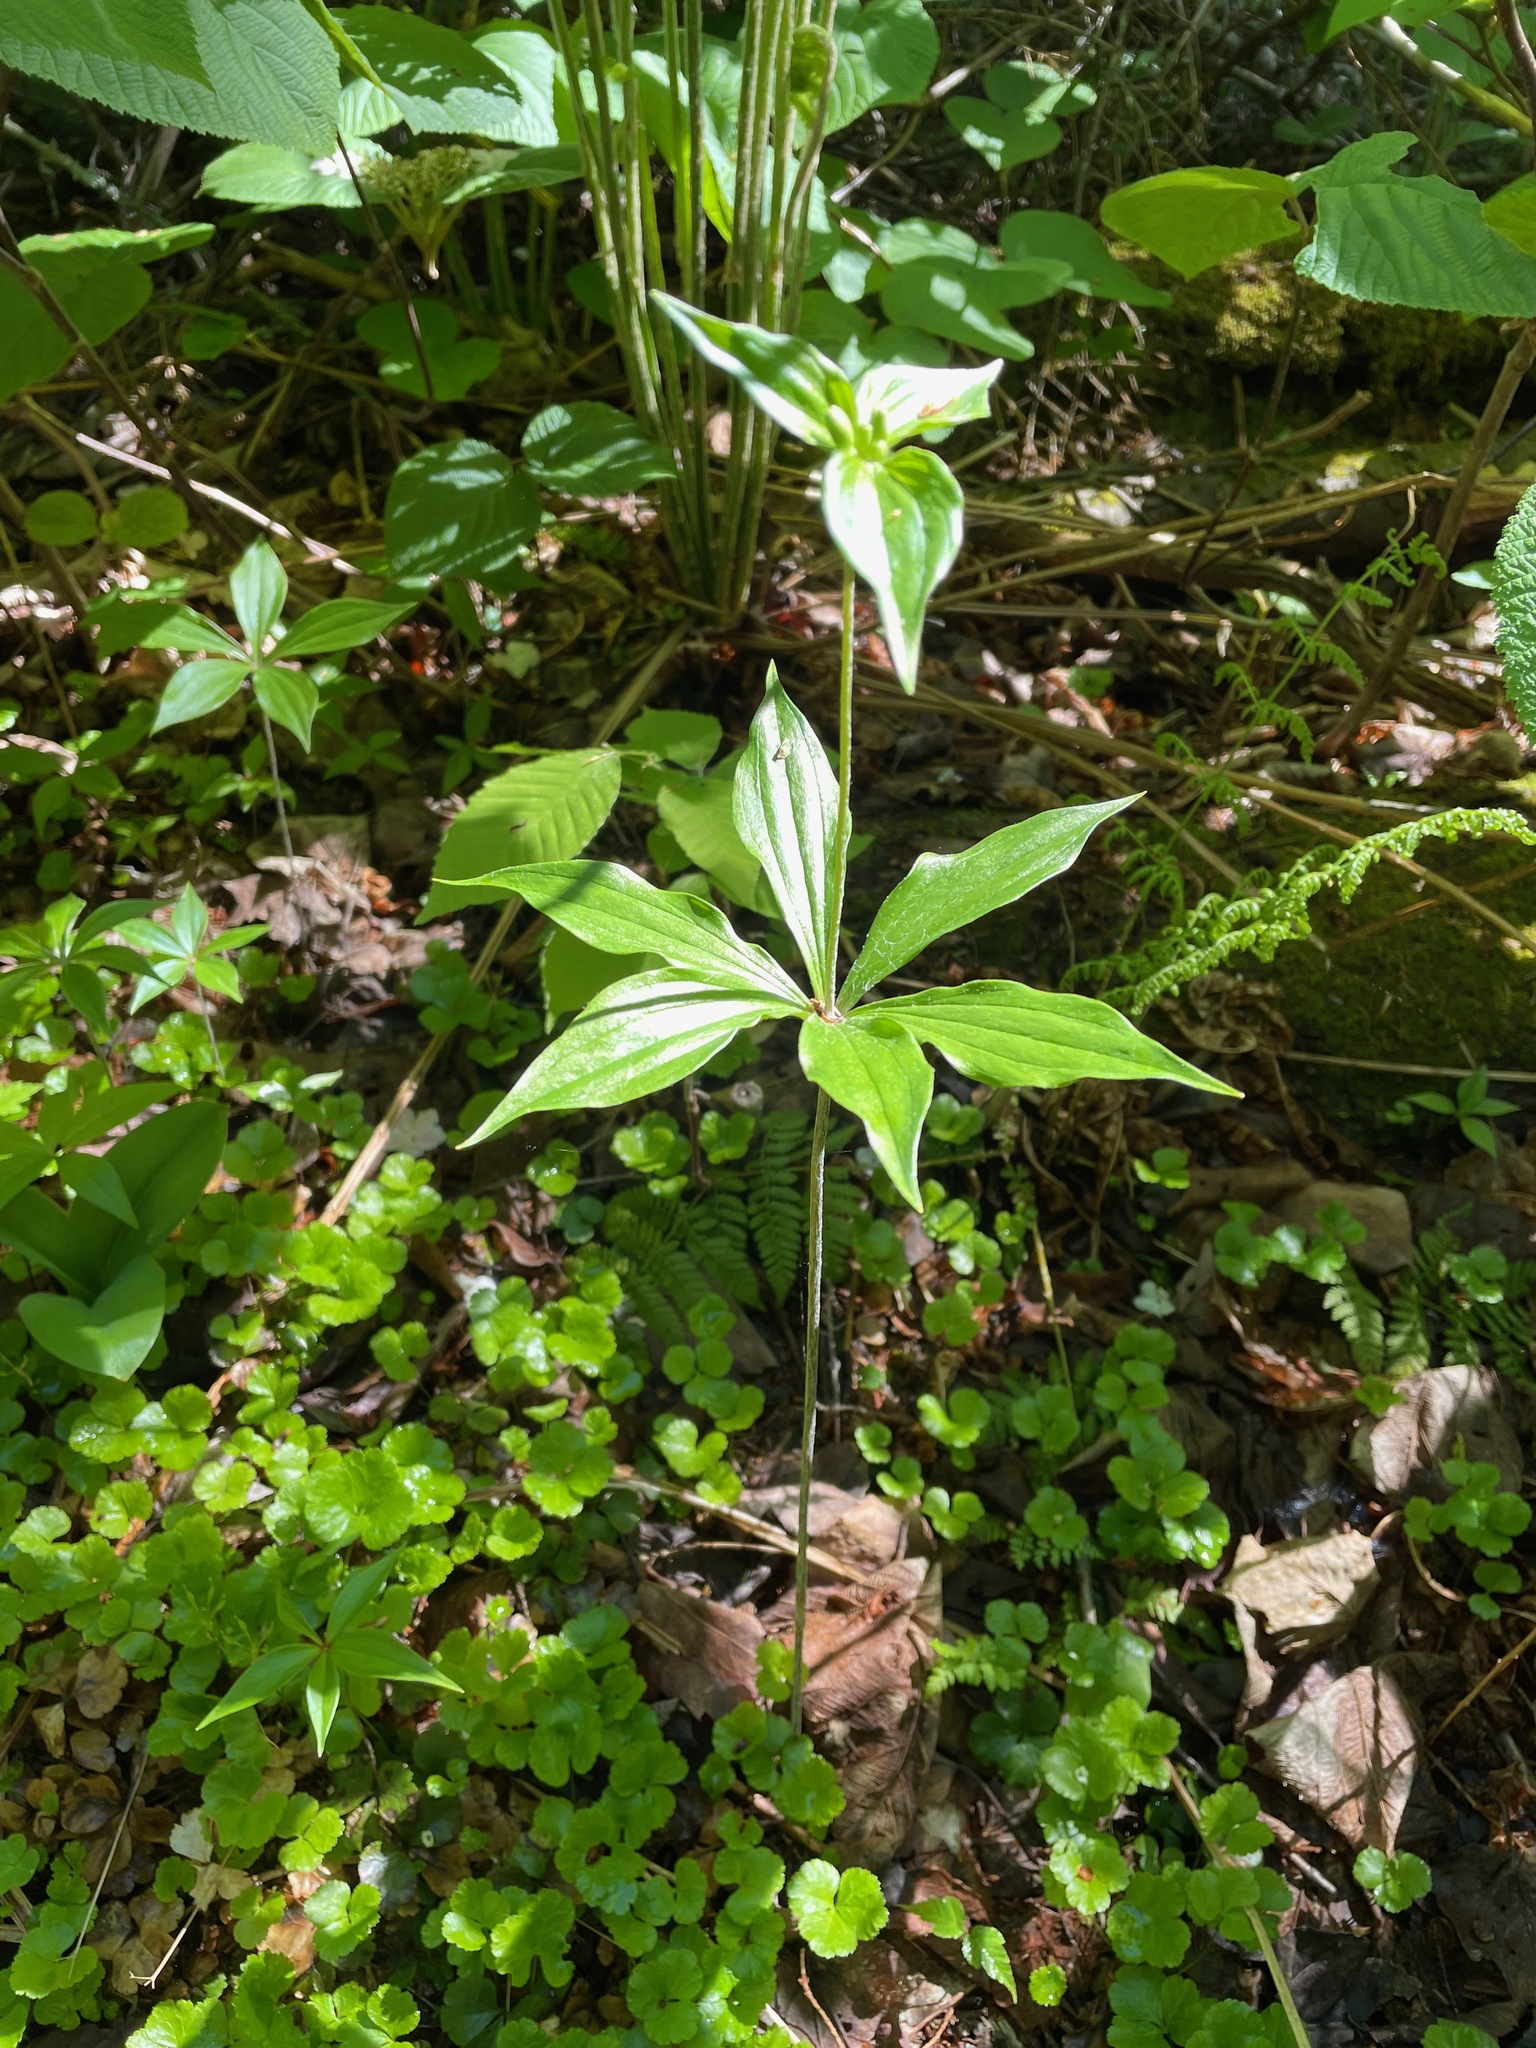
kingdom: Plantae
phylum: Tracheophyta
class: Liliopsida
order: Liliales
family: Liliaceae
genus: Medeola
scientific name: Medeola virginiana
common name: Indian cucumber-root
